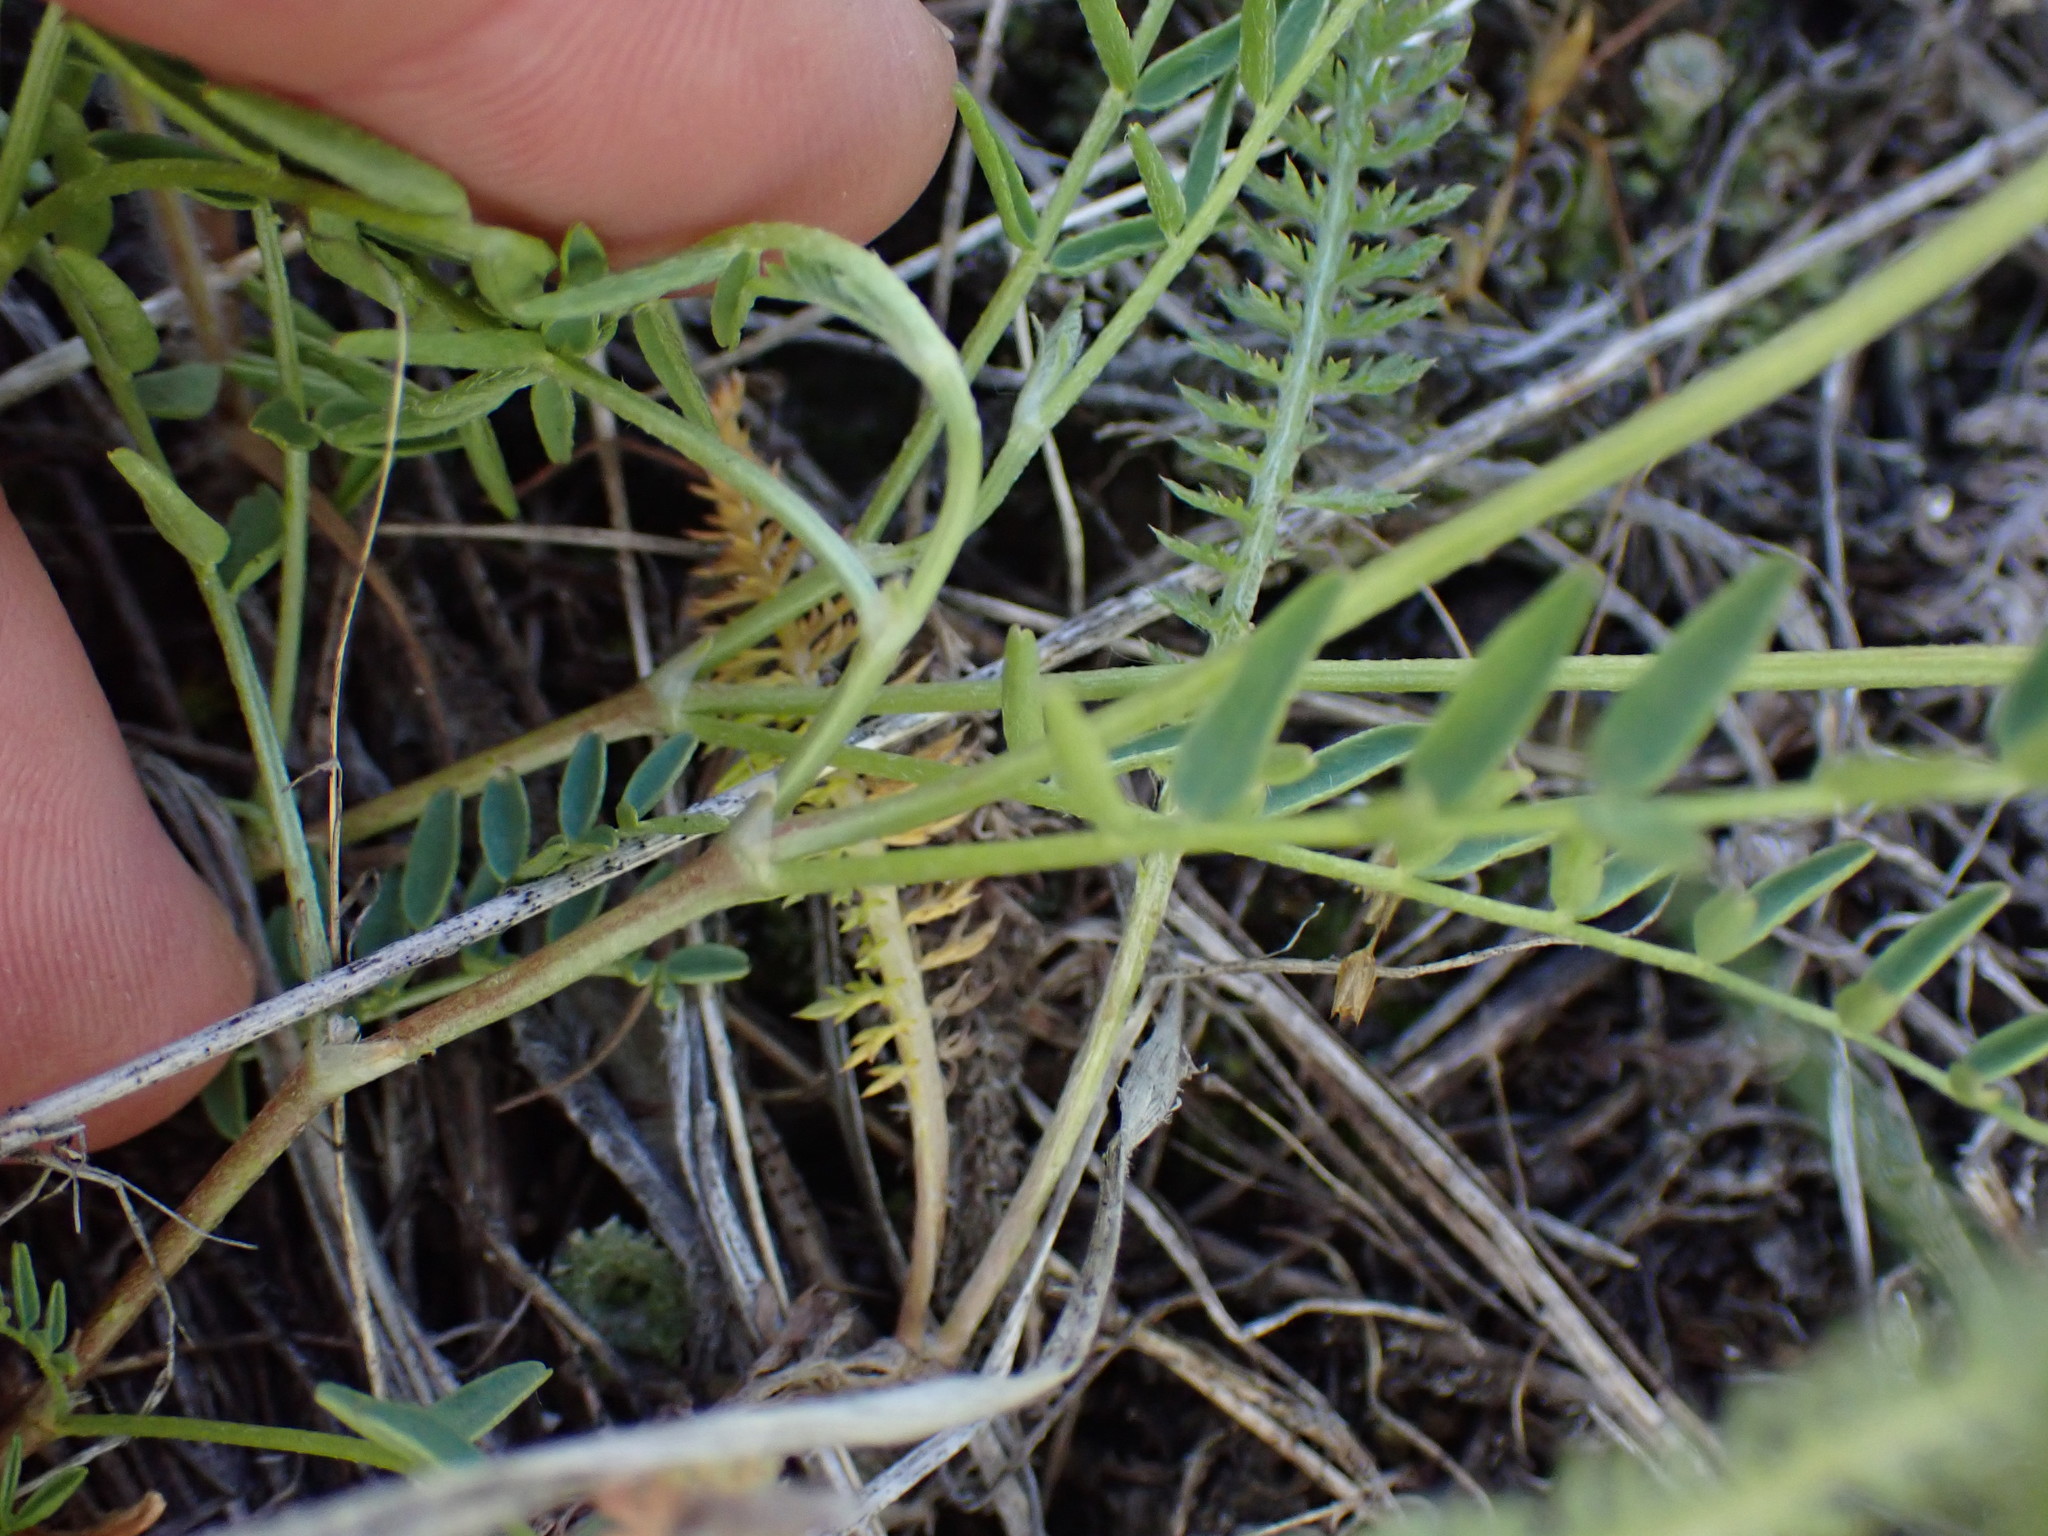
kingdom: Plantae
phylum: Tracheophyta
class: Magnoliopsida
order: Fabales
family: Fabaceae
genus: Astragalus
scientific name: Astragalus agrestis
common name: Field milk-vetch
